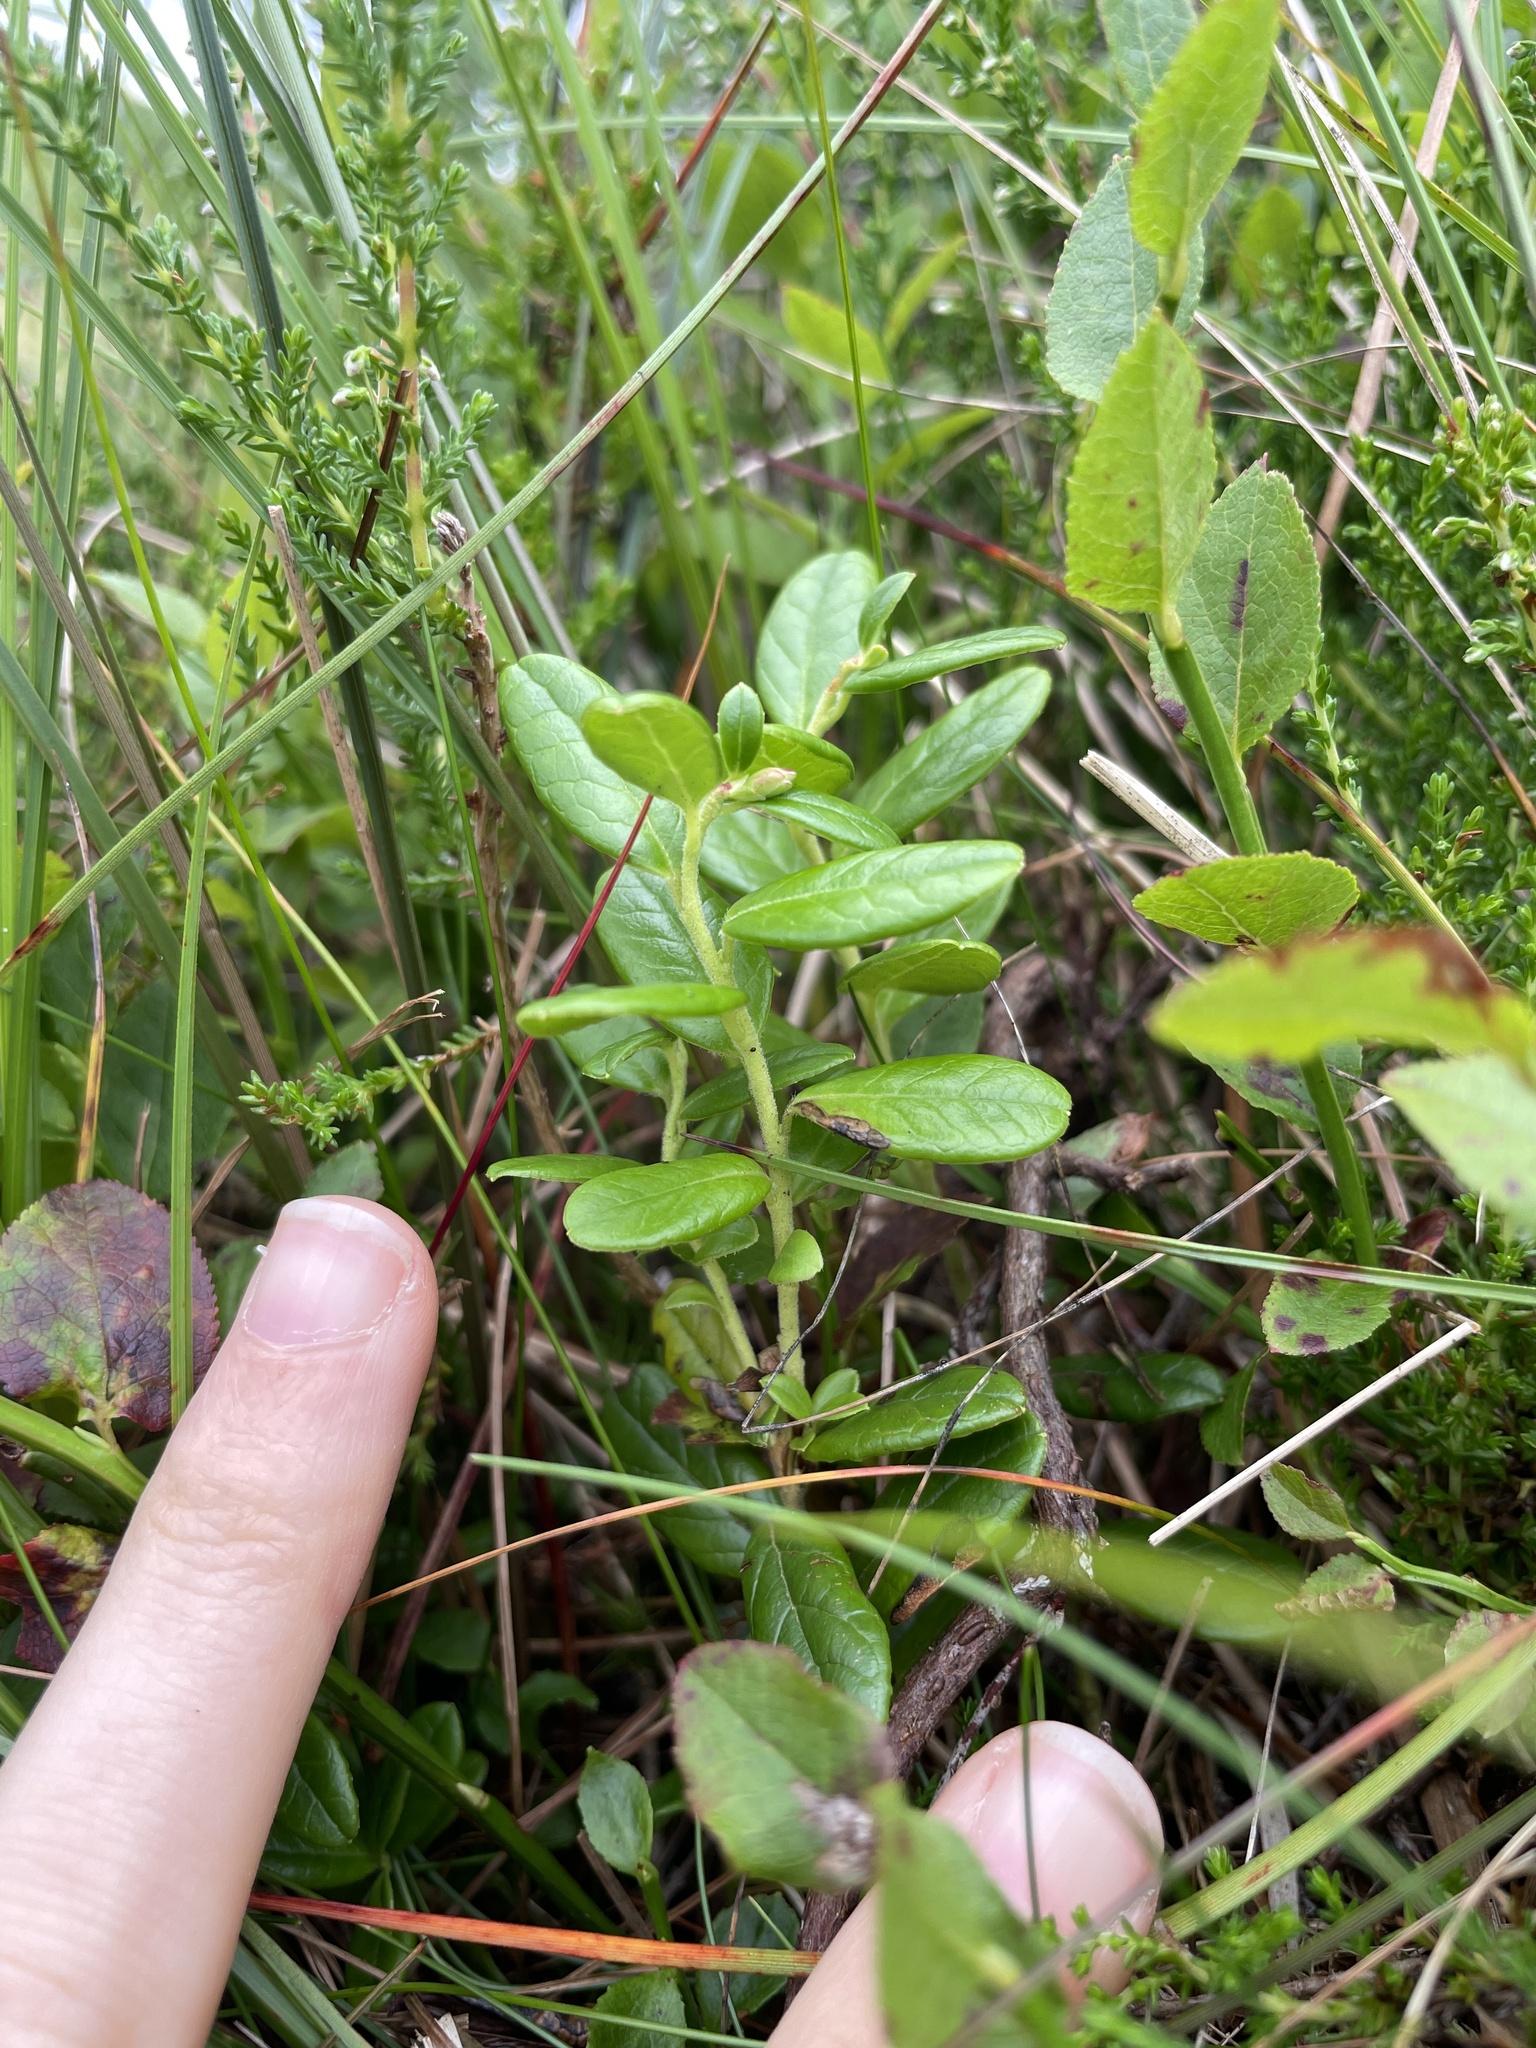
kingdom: Plantae
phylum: Tracheophyta
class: Magnoliopsida
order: Ericales
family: Ericaceae
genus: Vaccinium
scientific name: Vaccinium vitis-idaea
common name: Cowberry
